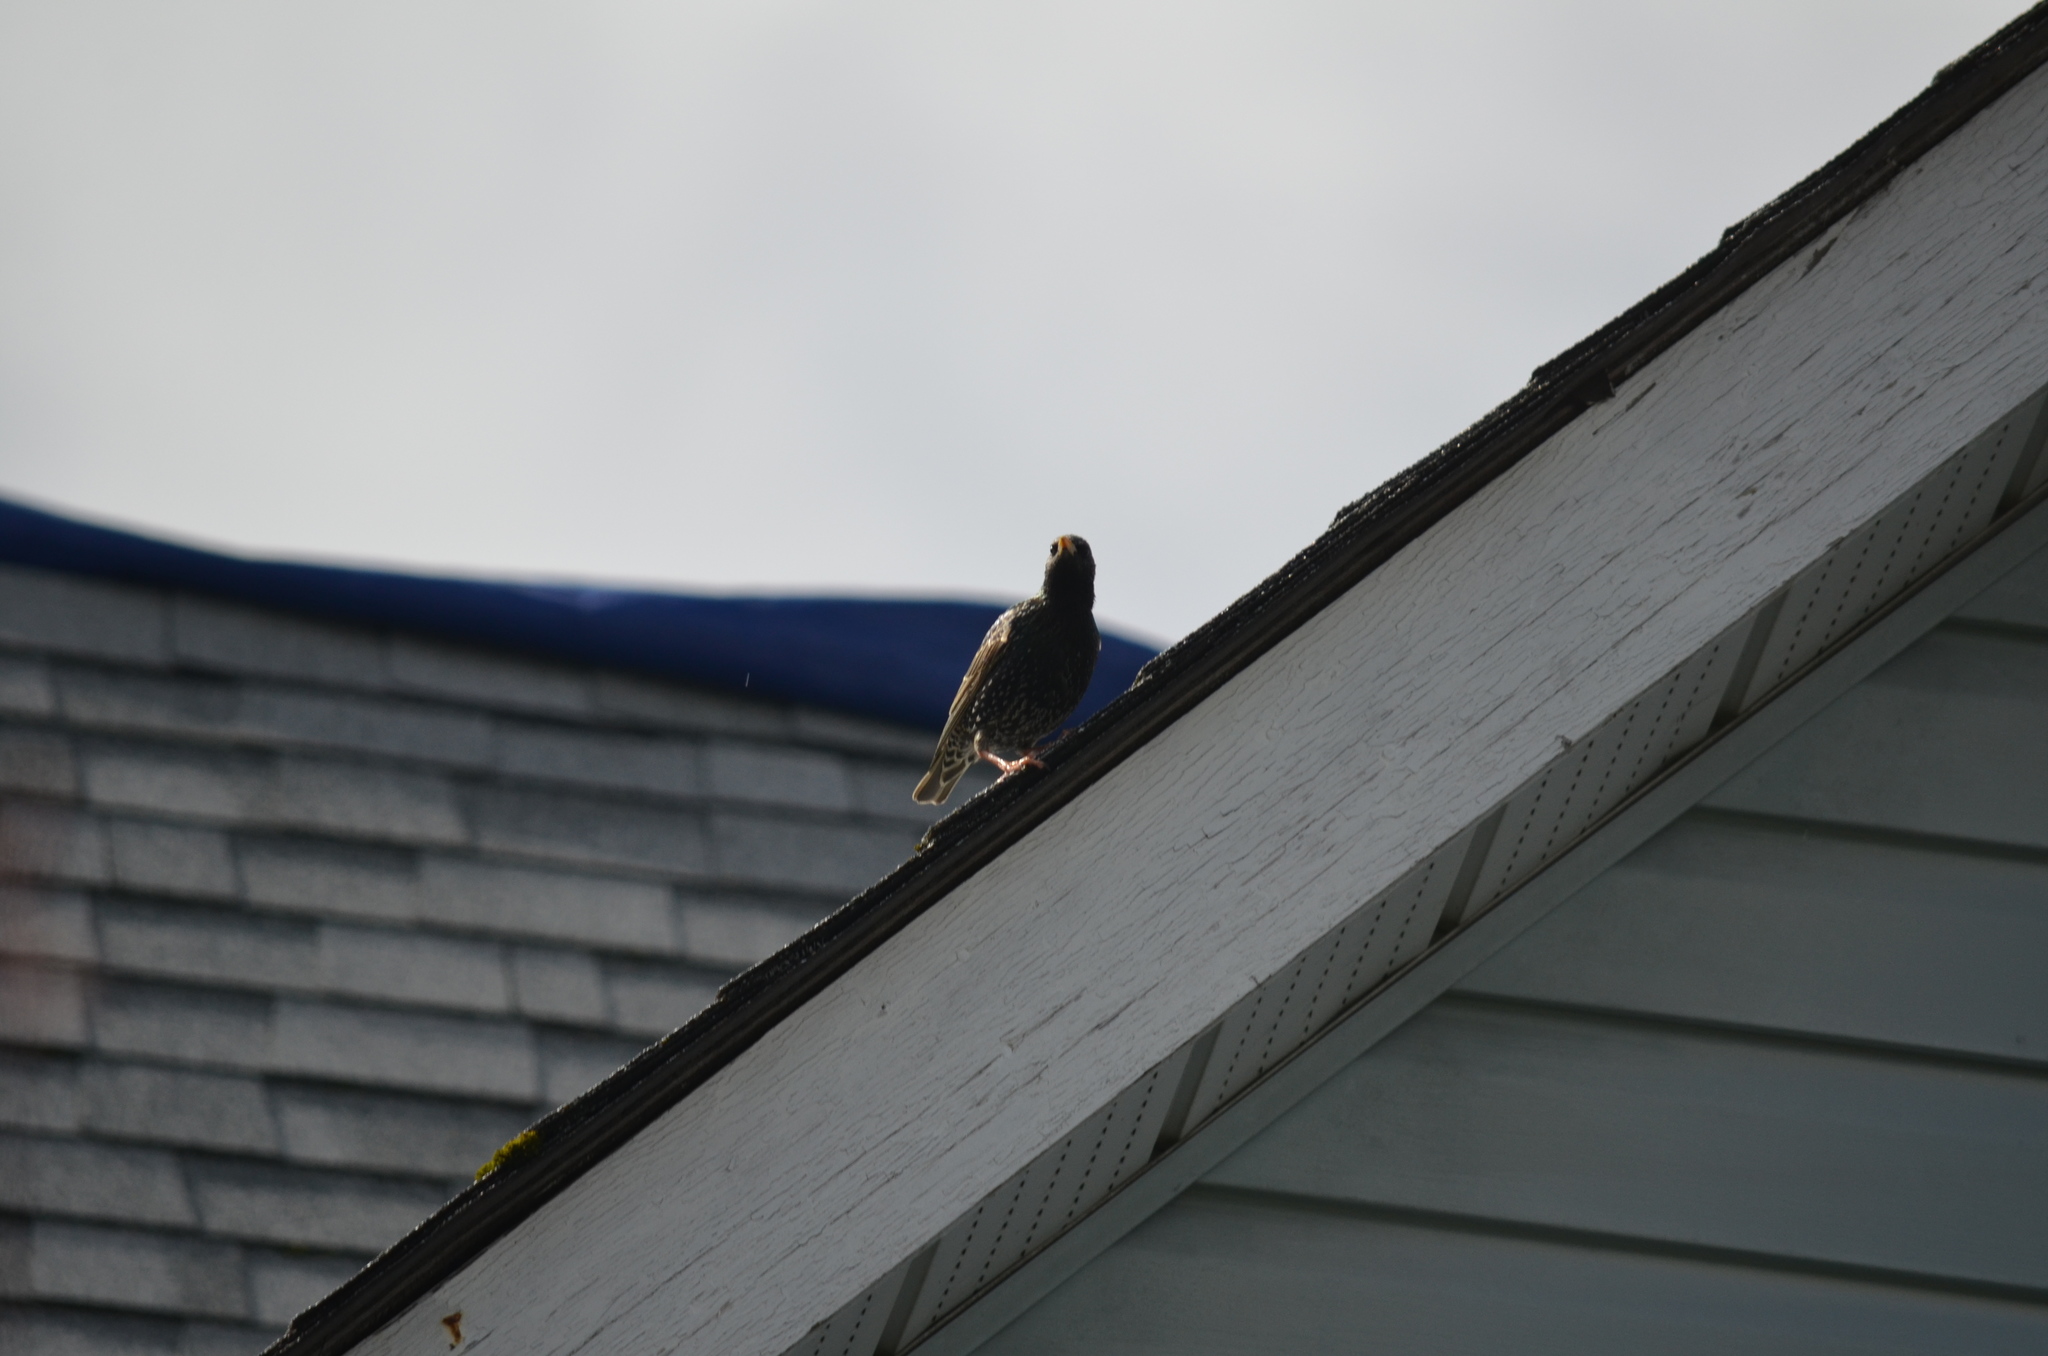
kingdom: Animalia
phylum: Chordata
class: Aves
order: Passeriformes
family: Sturnidae
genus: Sturnus
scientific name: Sturnus vulgaris
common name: Common starling
